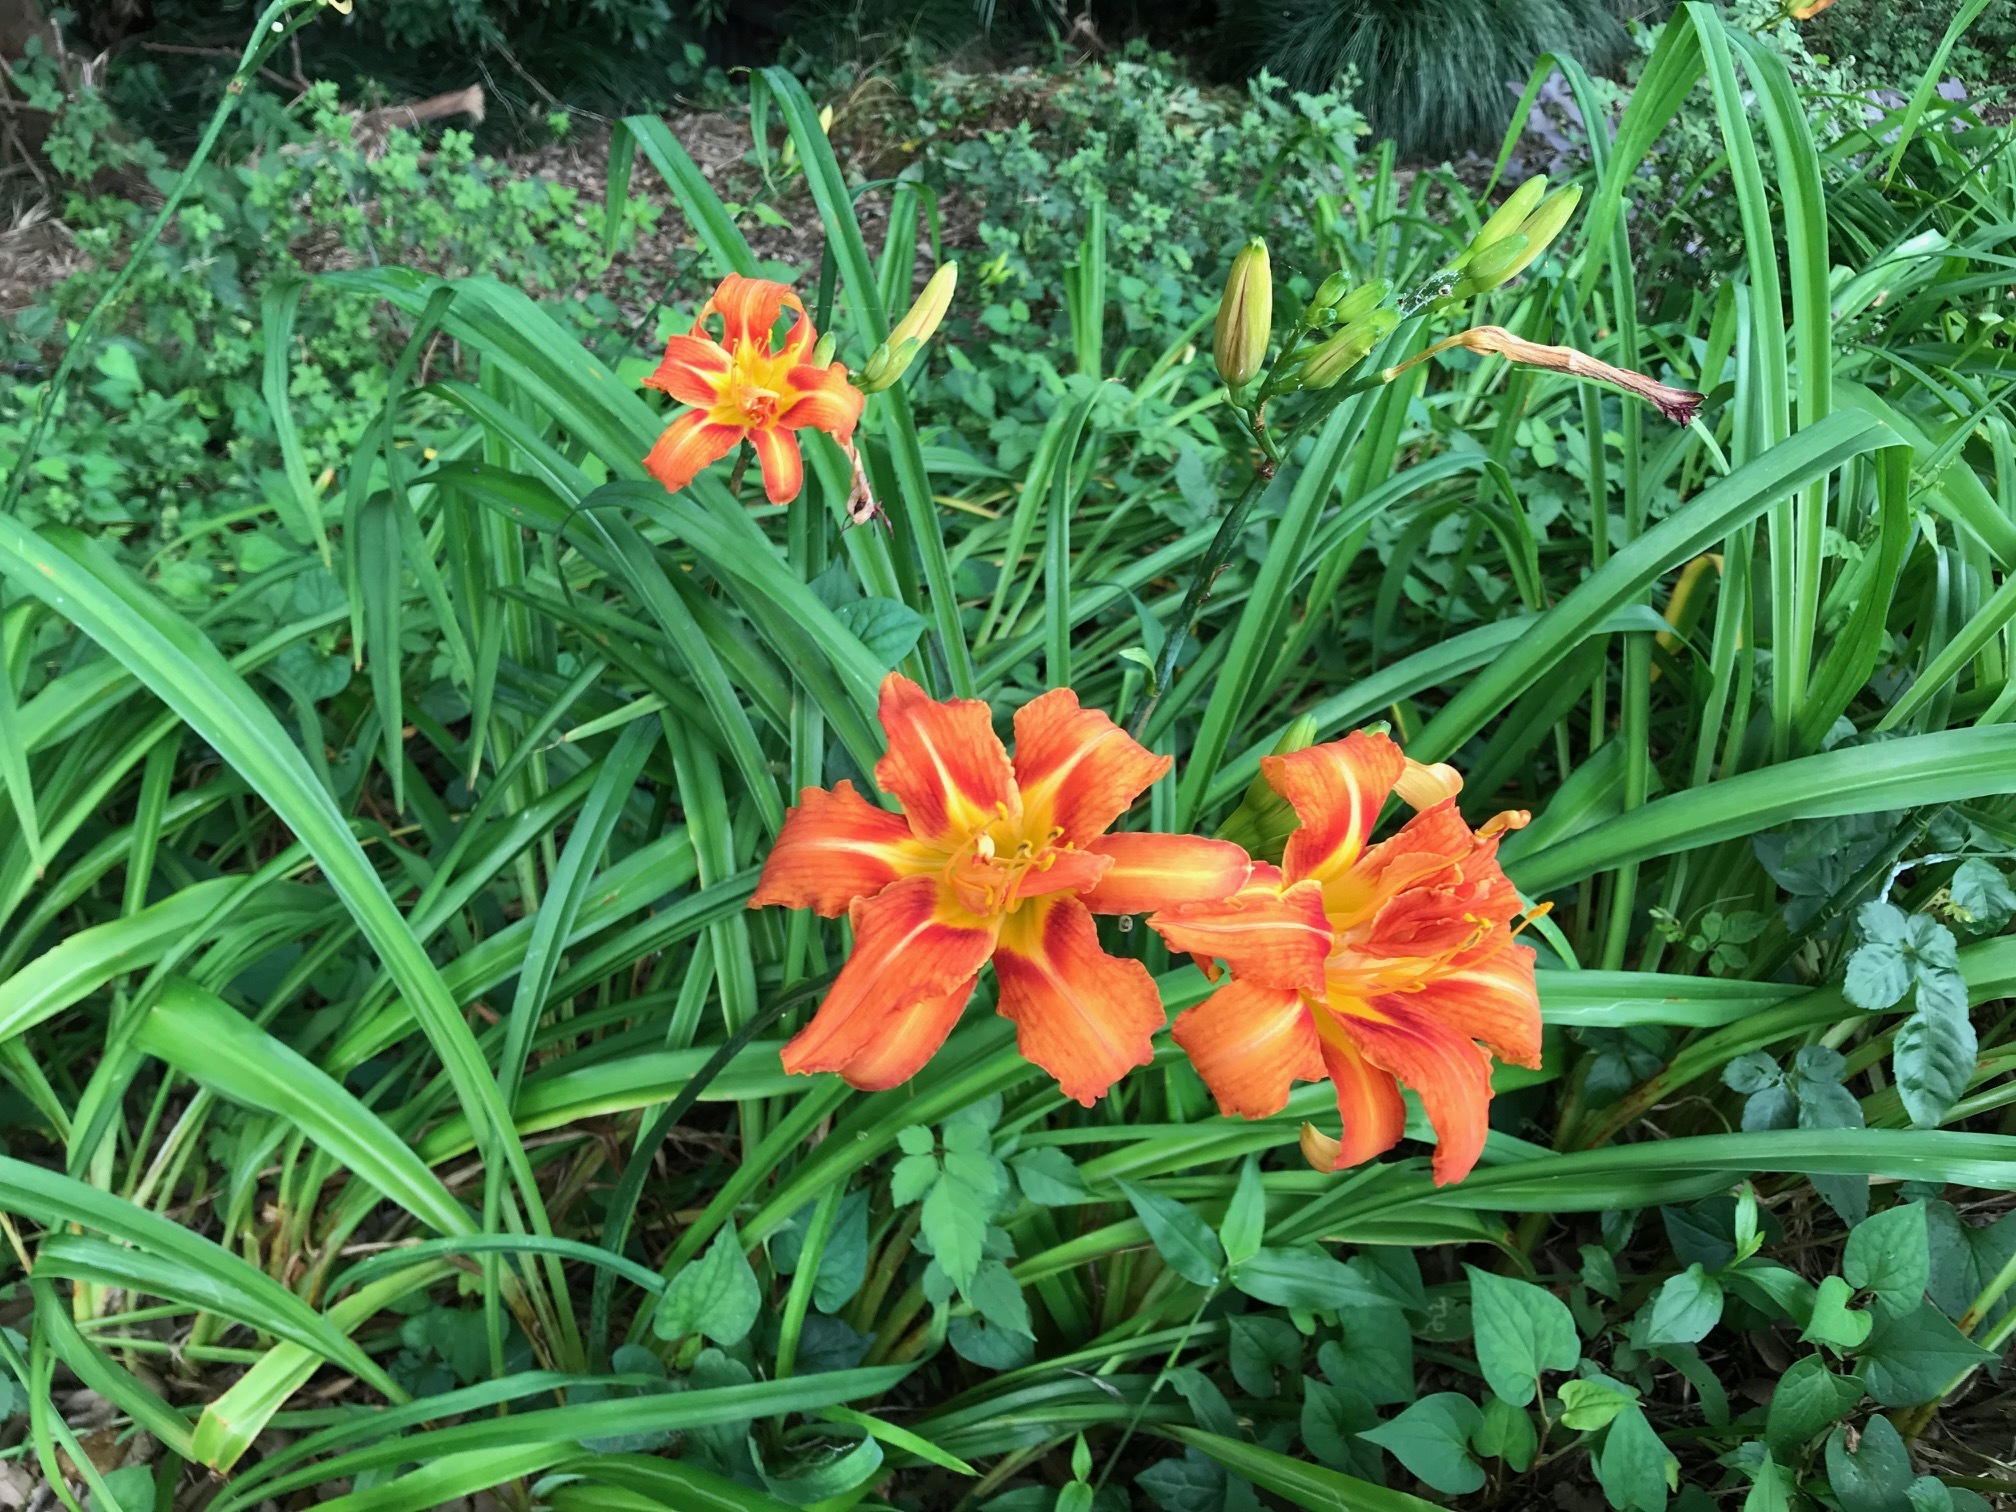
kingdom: Plantae
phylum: Tracheophyta
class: Liliopsida
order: Asparagales
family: Asphodelaceae
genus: Hemerocallis
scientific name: Hemerocallis fulva
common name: Orange day-lily
